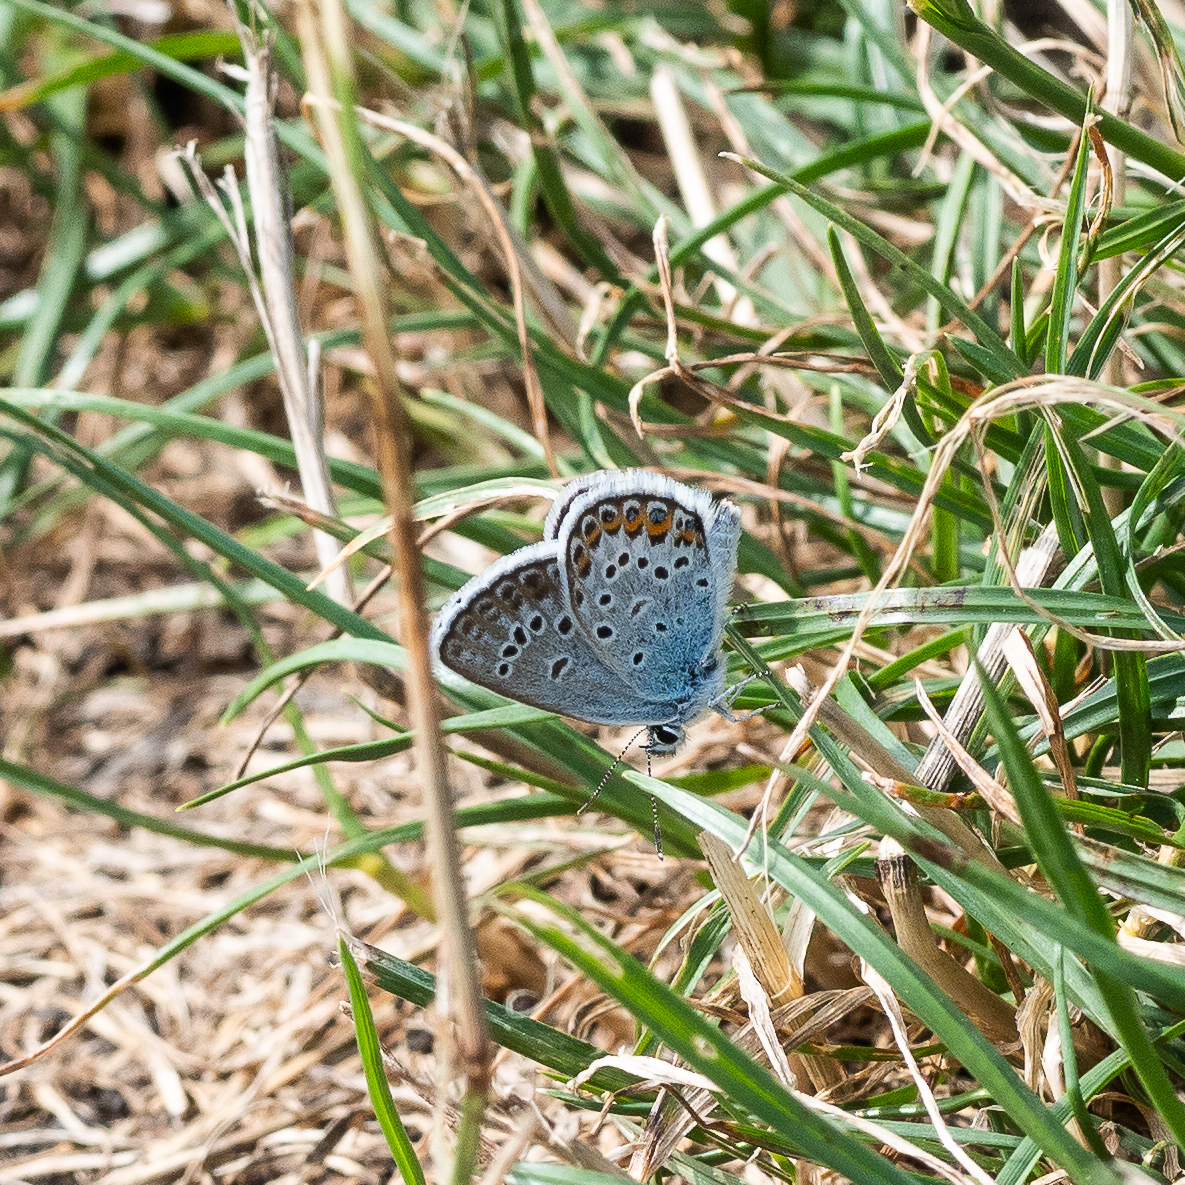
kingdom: Animalia
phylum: Arthropoda
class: Insecta
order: Lepidoptera
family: Lycaenidae
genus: Plebejus
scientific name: Plebejus argus
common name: Silver-studded blue
